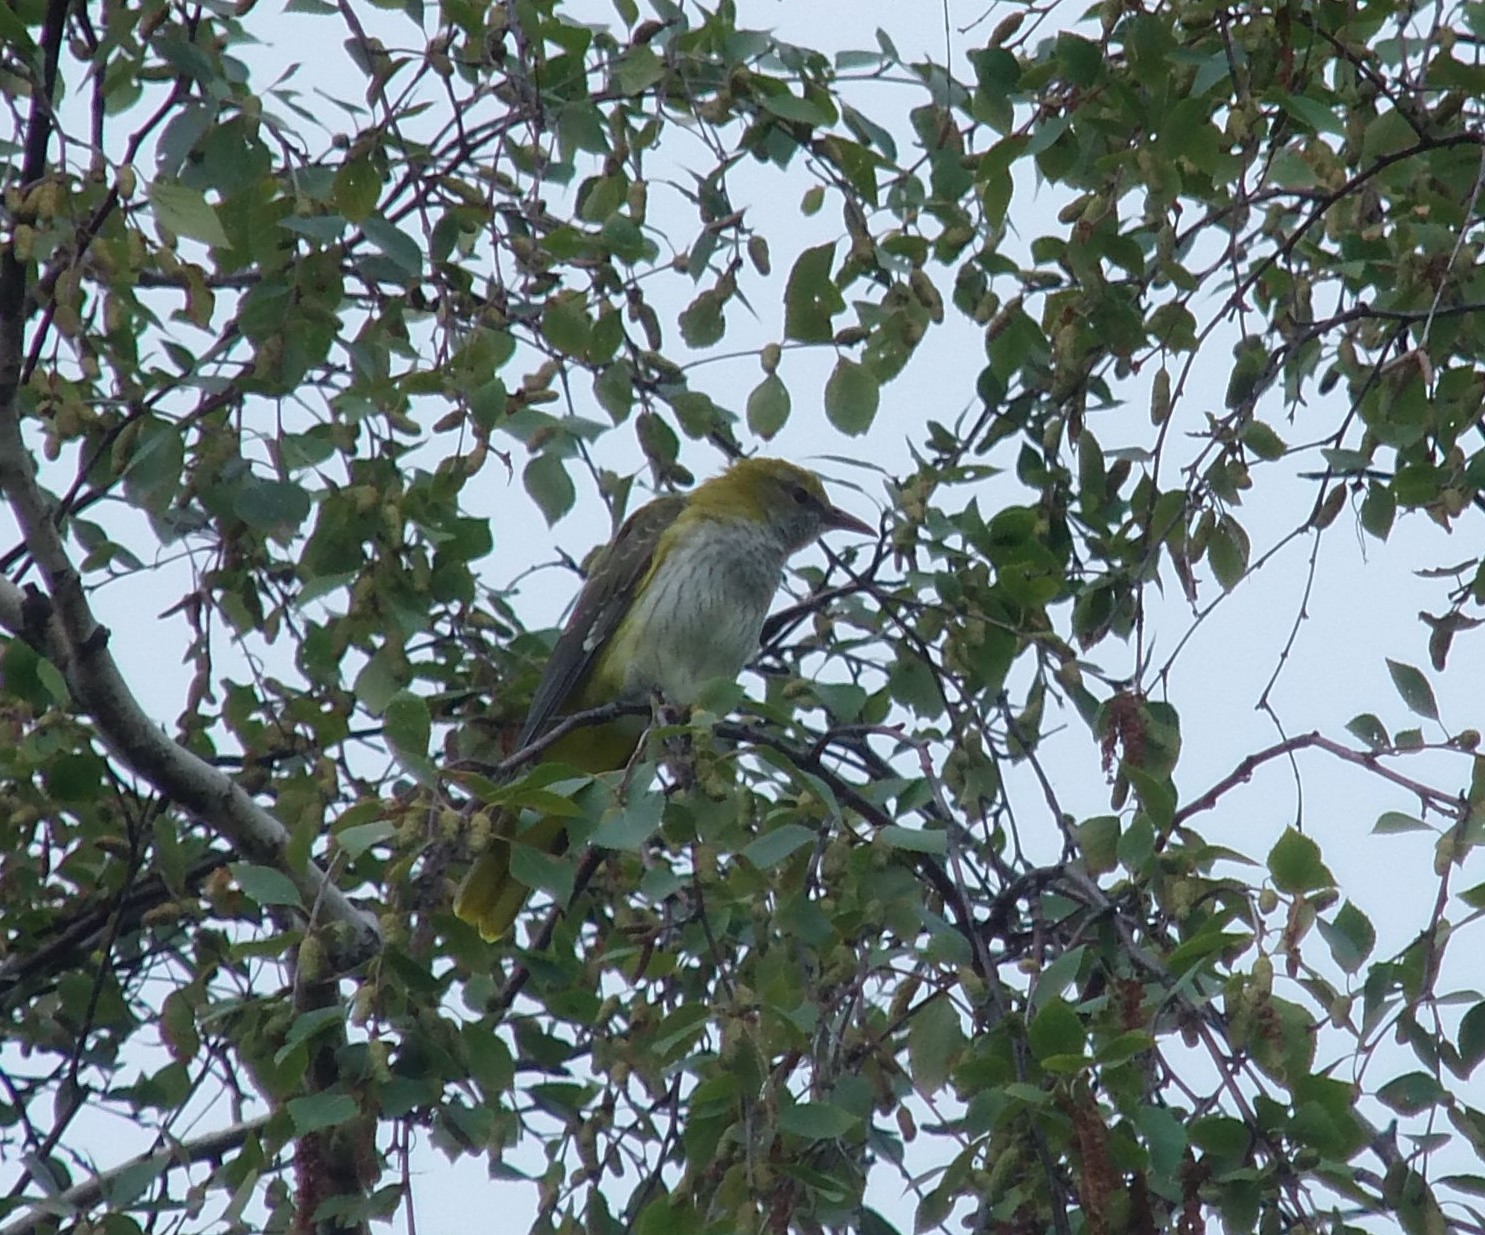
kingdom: Animalia
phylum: Chordata
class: Aves
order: Passeriformes
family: Oriolidae
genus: Oriolus
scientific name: Oriolus oriolus
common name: Eurasian golden oriole
